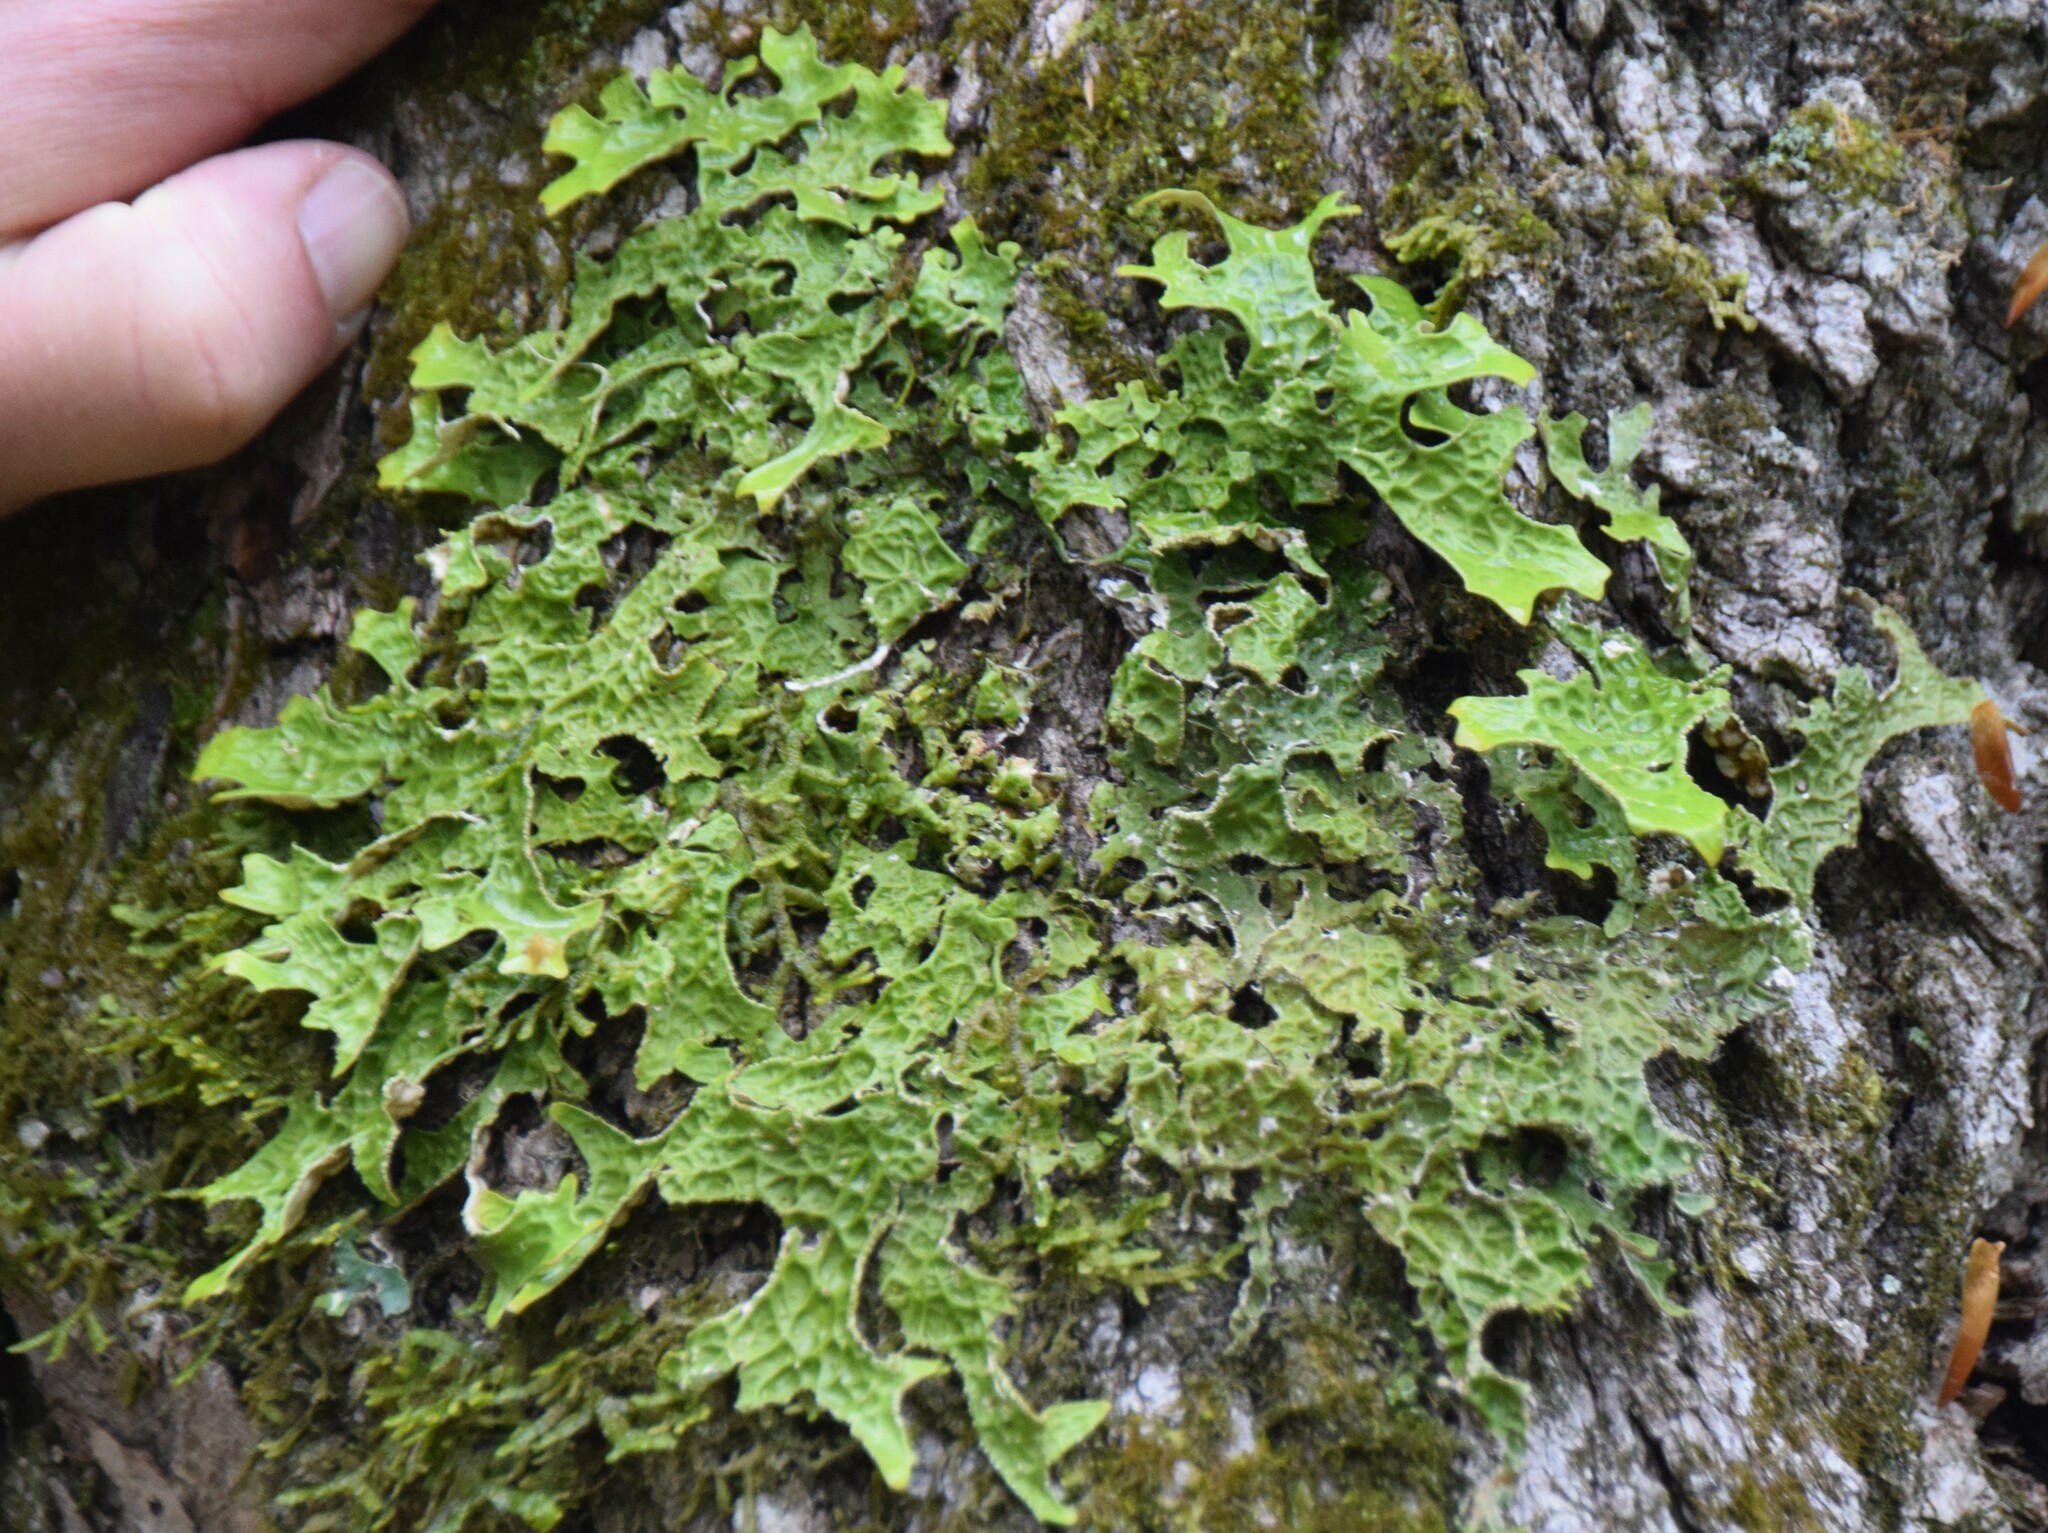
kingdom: Fungi
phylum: Ascomycota
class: Lecanoromycetes
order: Peltigerales
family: Lobariaceae
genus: Lobaria
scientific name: Lobaria pulmonaria
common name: Lungwort
